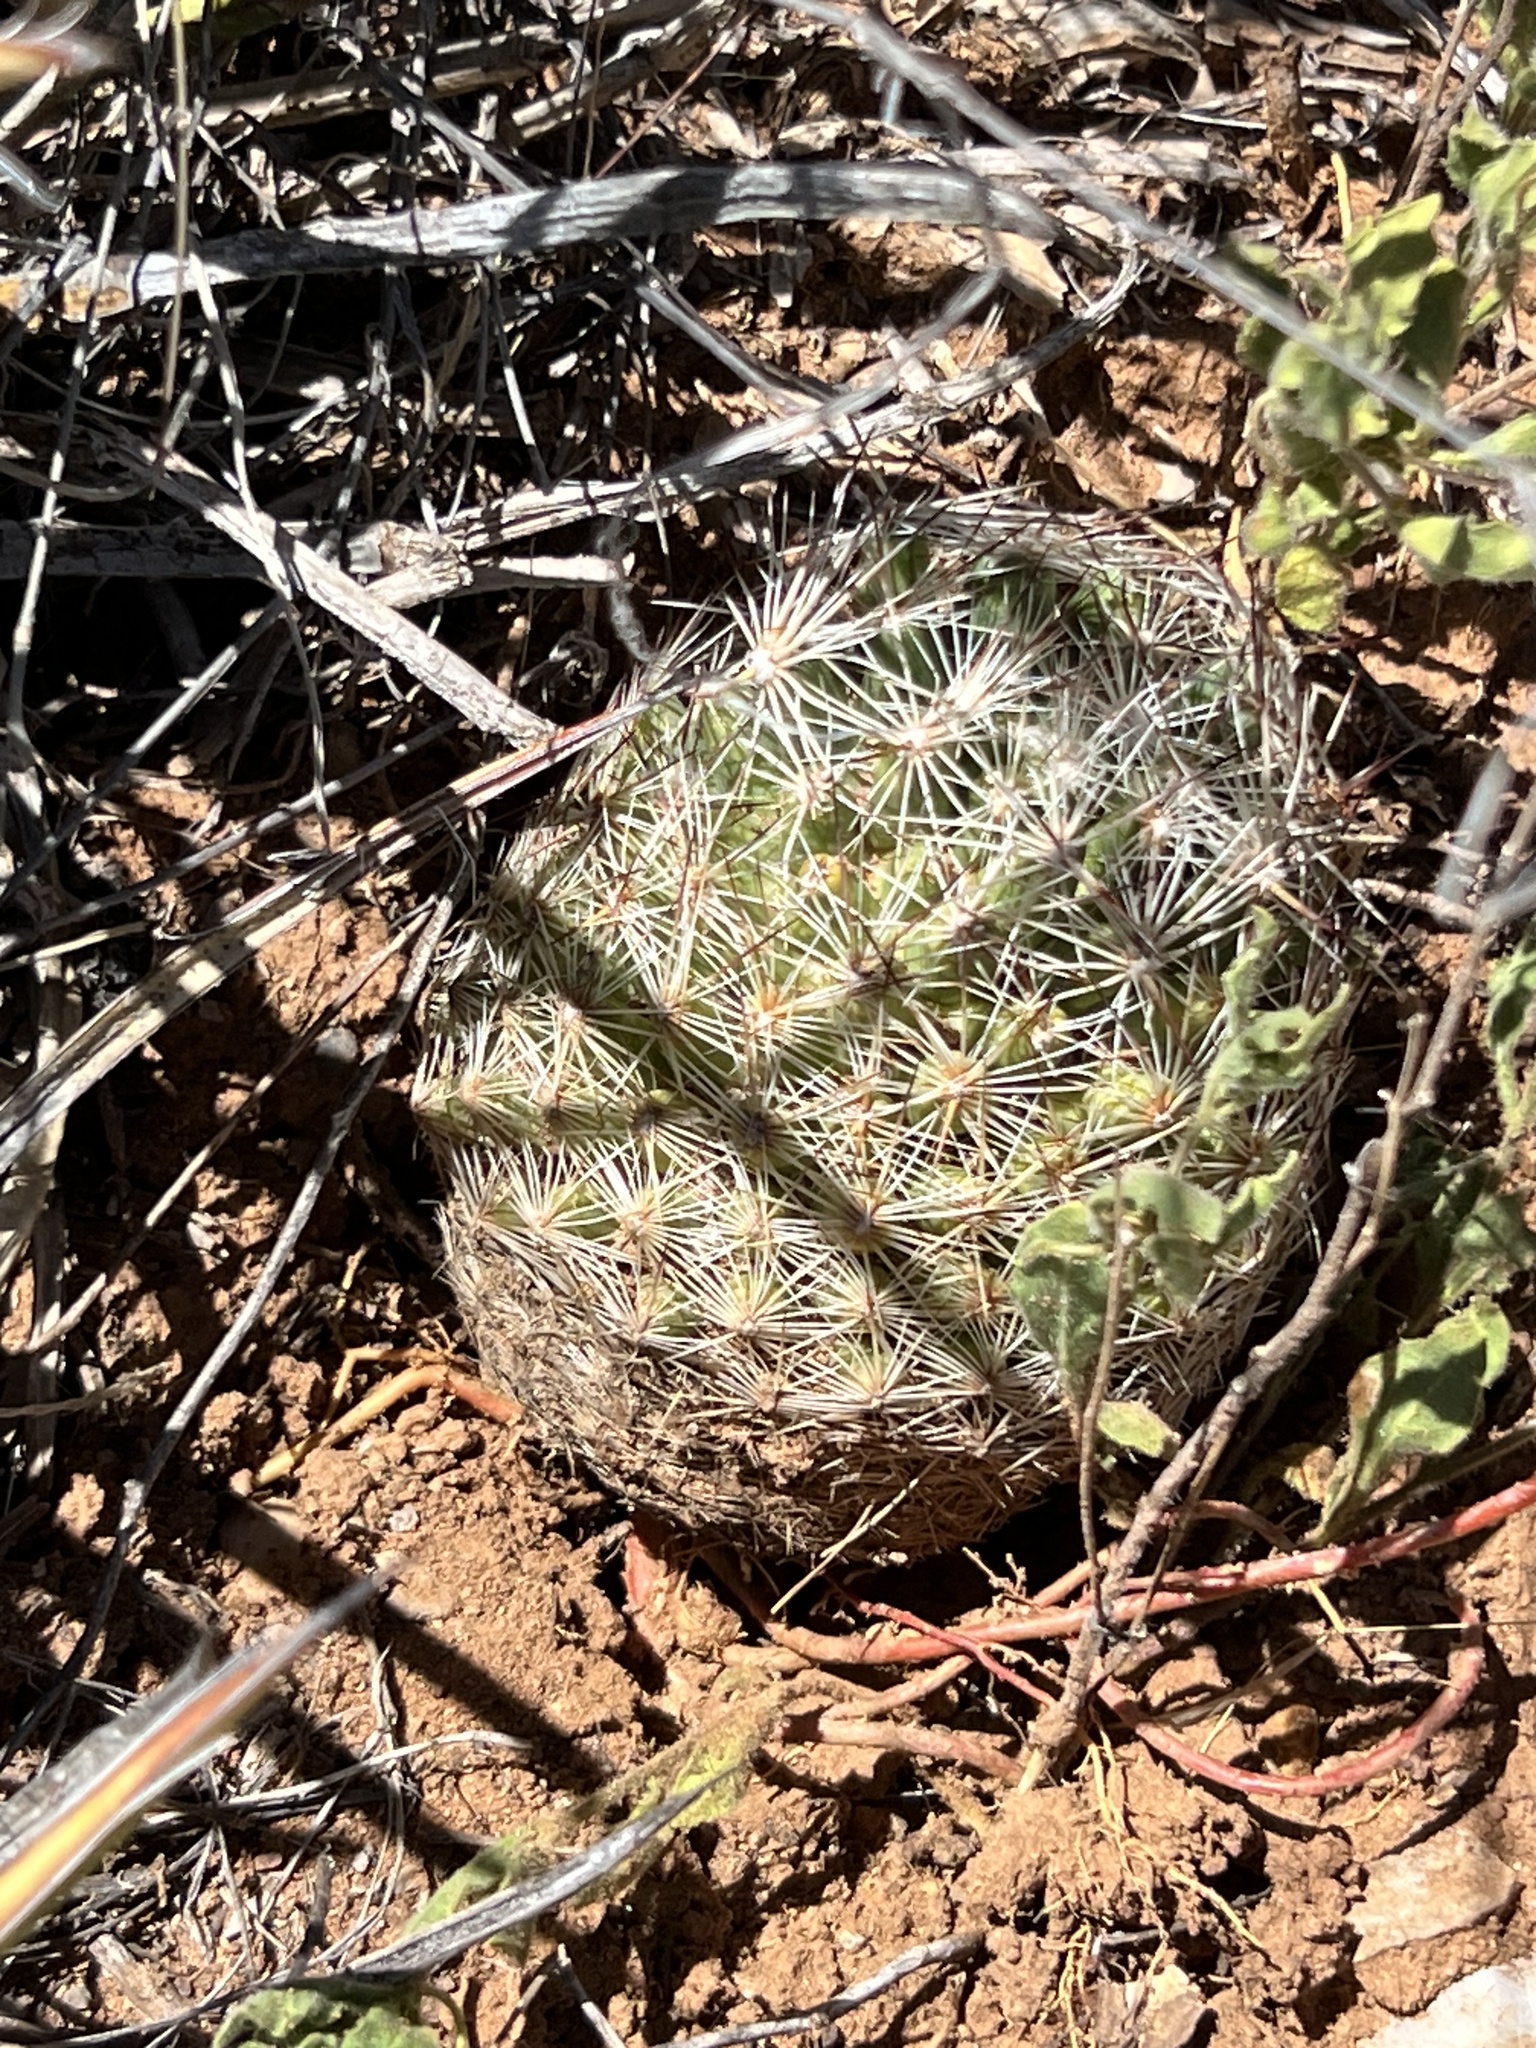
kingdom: Plantae
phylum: Tracheophyta
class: Magnoliopsida
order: Caryophyllales
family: Cactaceae
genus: Pelecyphora
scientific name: Pelecyphora vivipara
